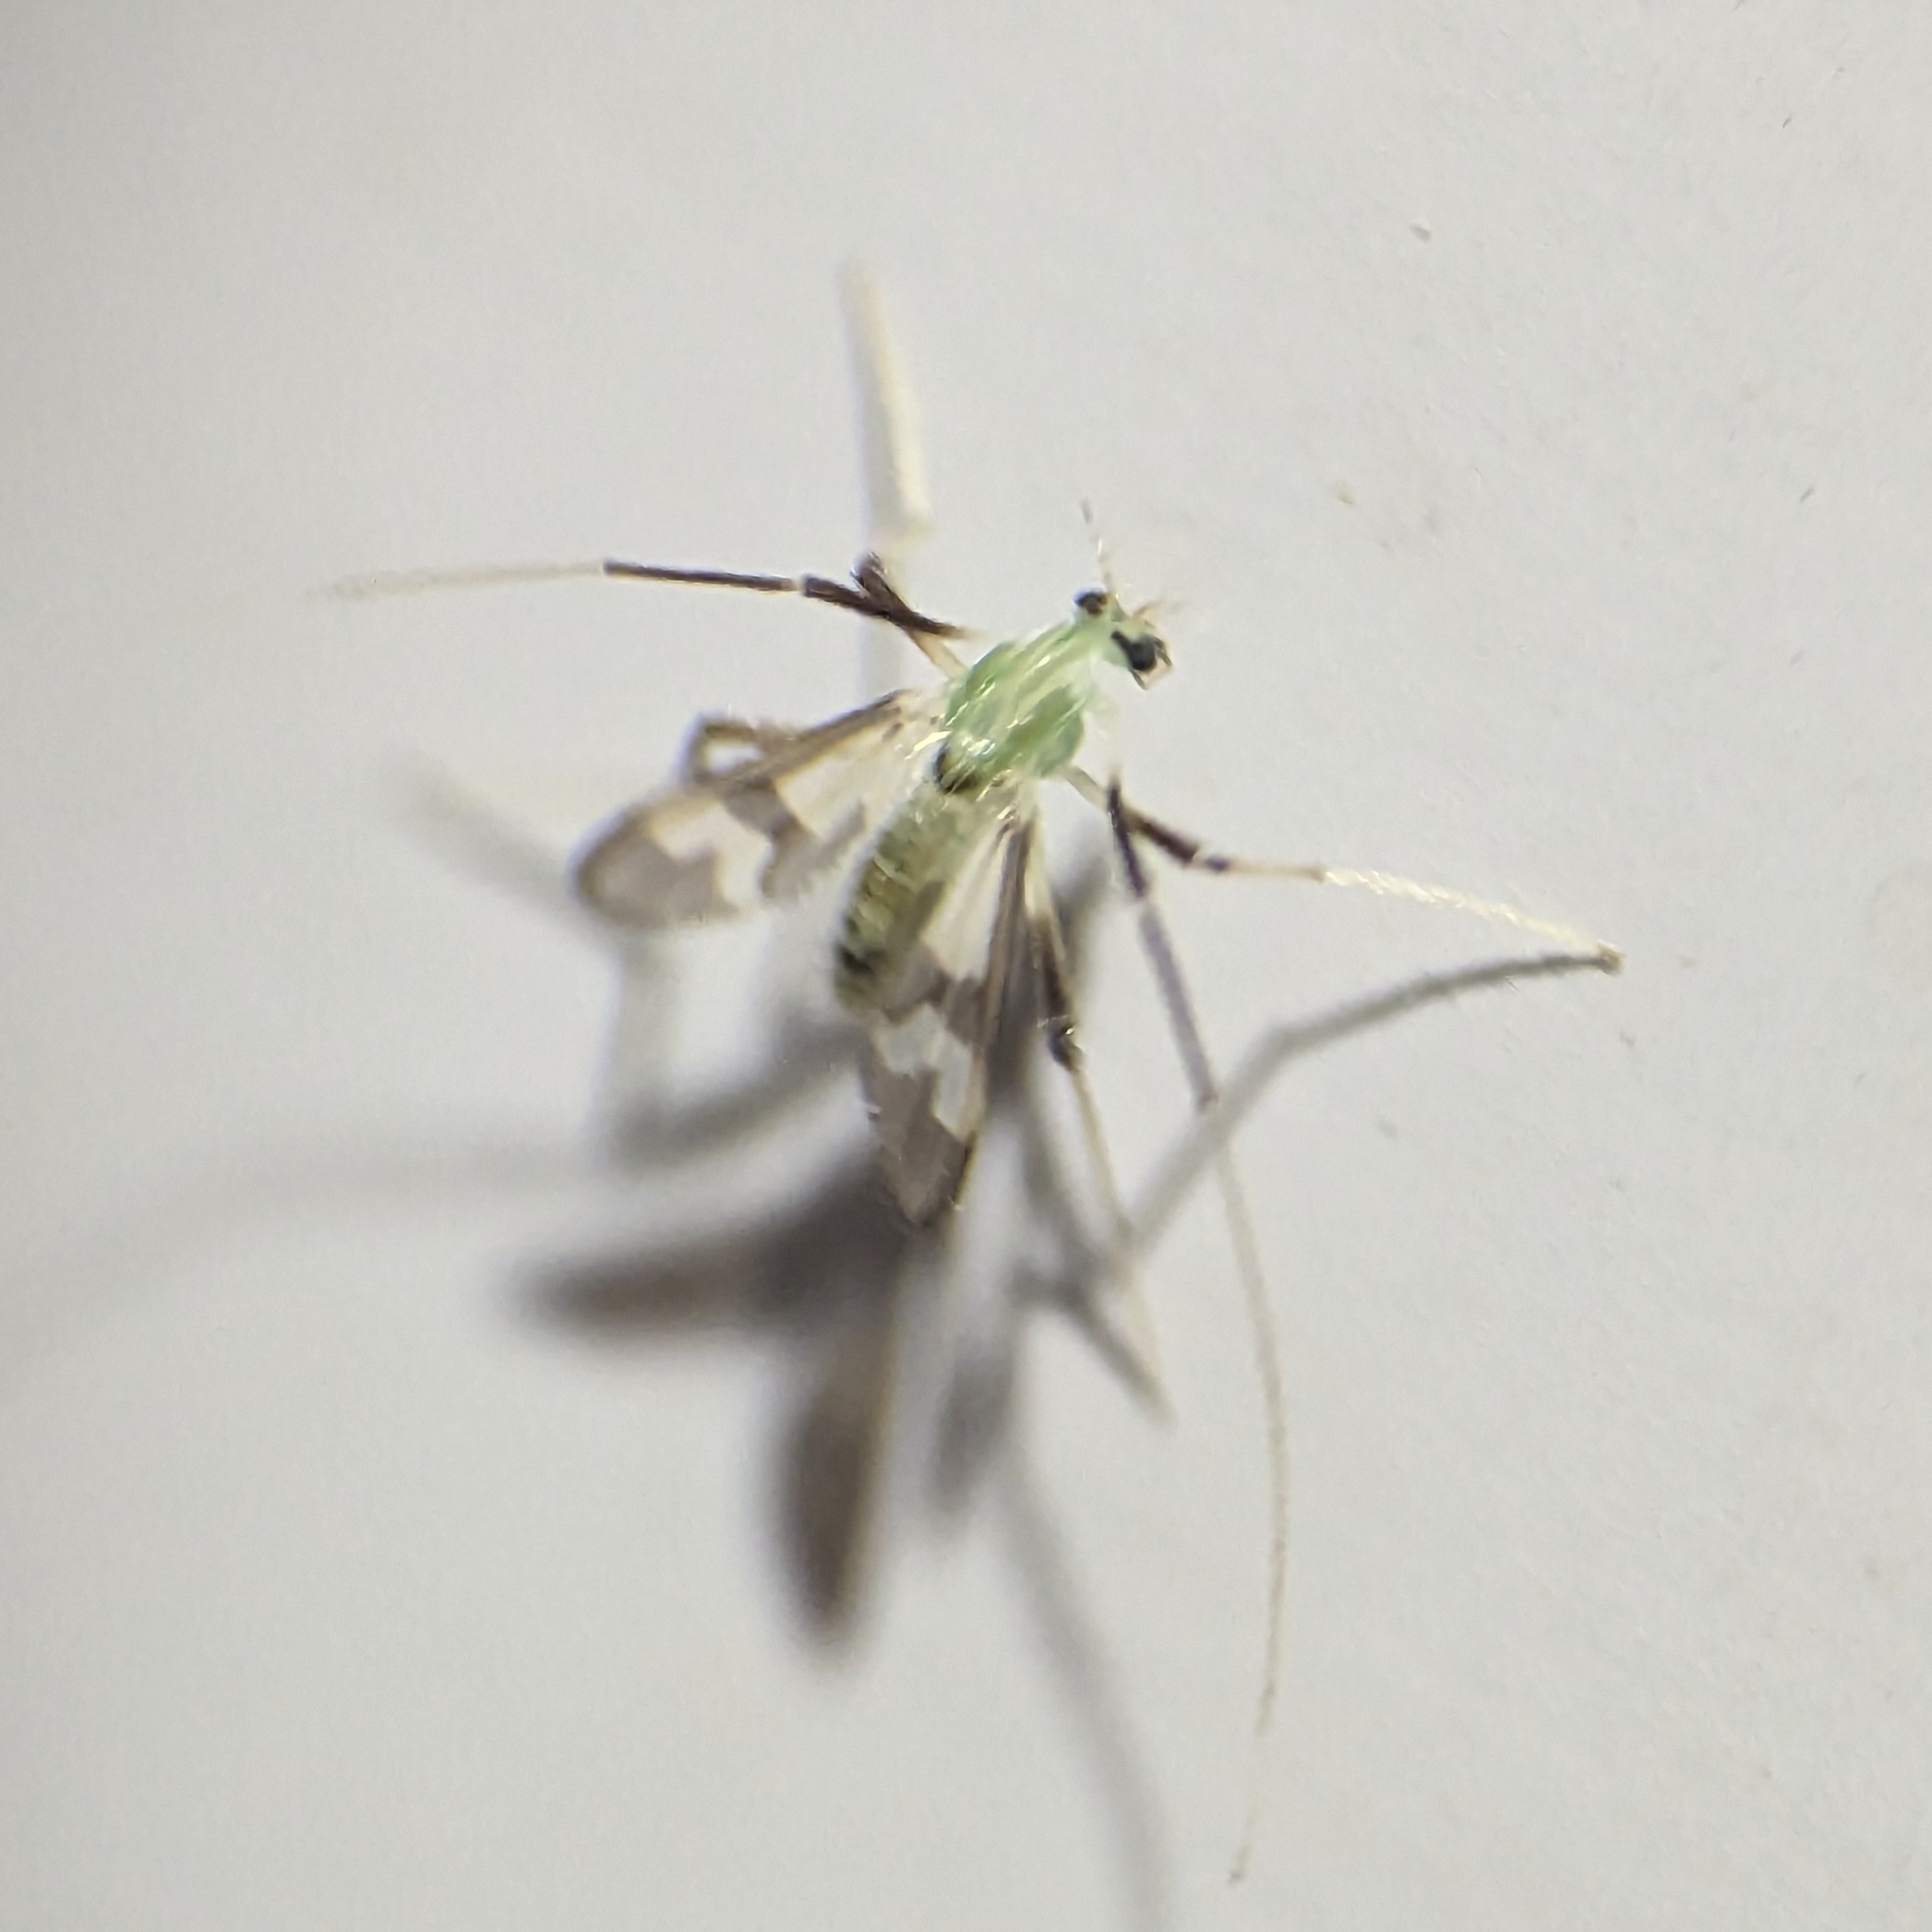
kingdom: Animalia
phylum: Arthropoda
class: Insecta
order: Diptera
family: Chironomidae
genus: Stenochironomus
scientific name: Stenochironomus hilaris
